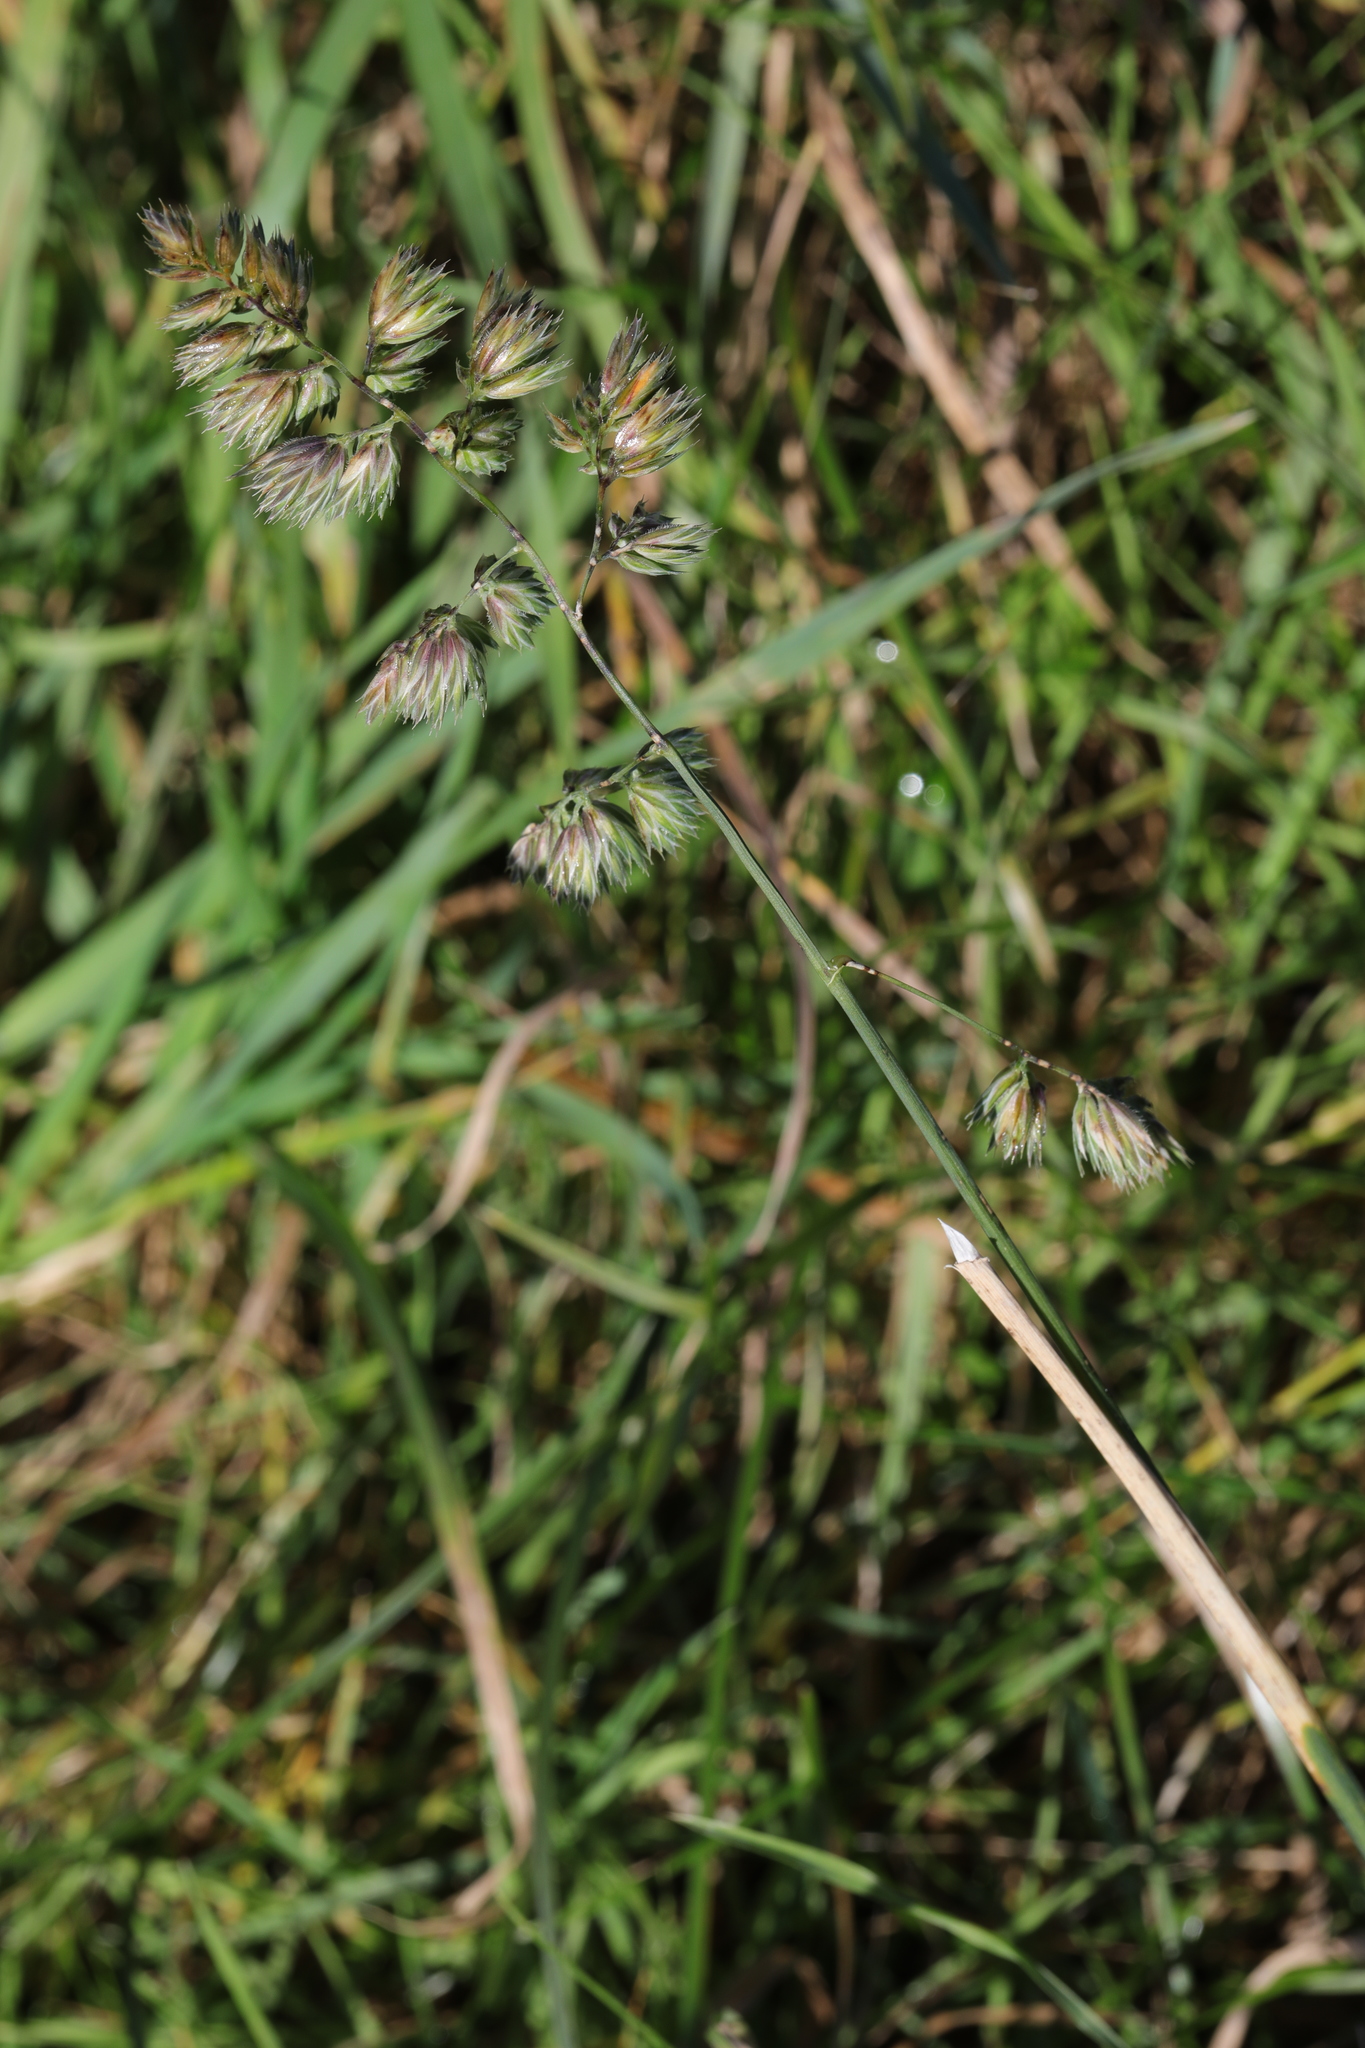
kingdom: Plantae
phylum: Tracheophyta
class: Liliopsida
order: Poales
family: Poaceae
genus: Dactylis
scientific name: Dactylis glomerata
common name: Orchardgrass
